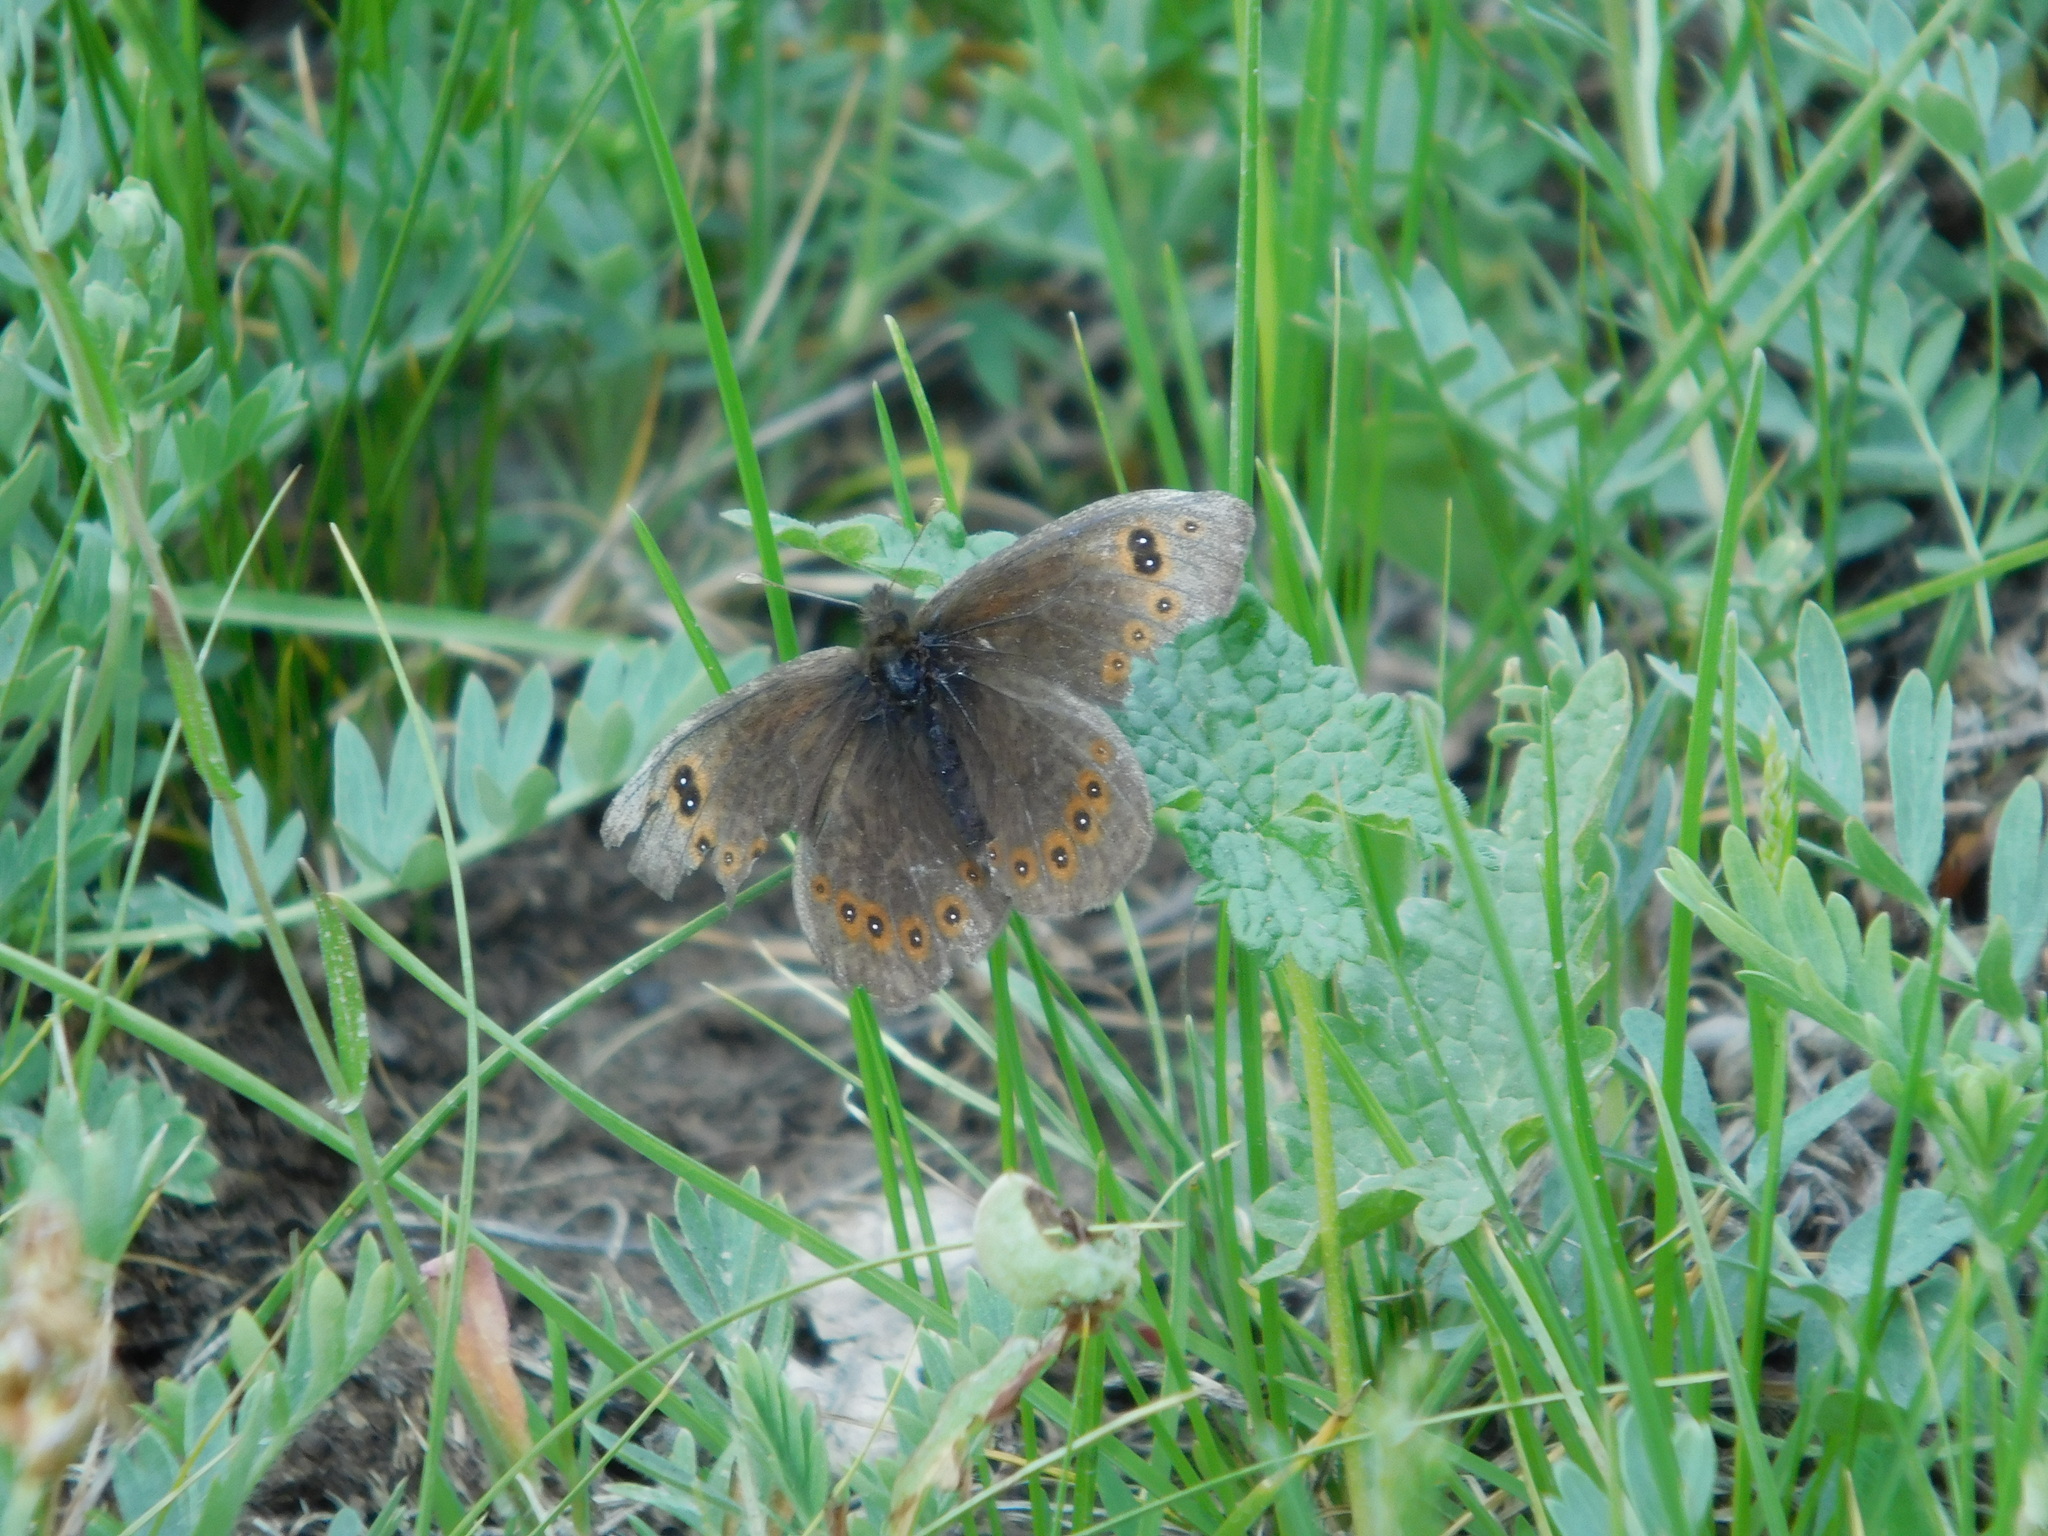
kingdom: Animalia
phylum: Arthropoda
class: Insecta
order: Lepidoptera
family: Nymphalidae
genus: Proterebia
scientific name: Proterebia afra
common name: Dalmatian ringlet
